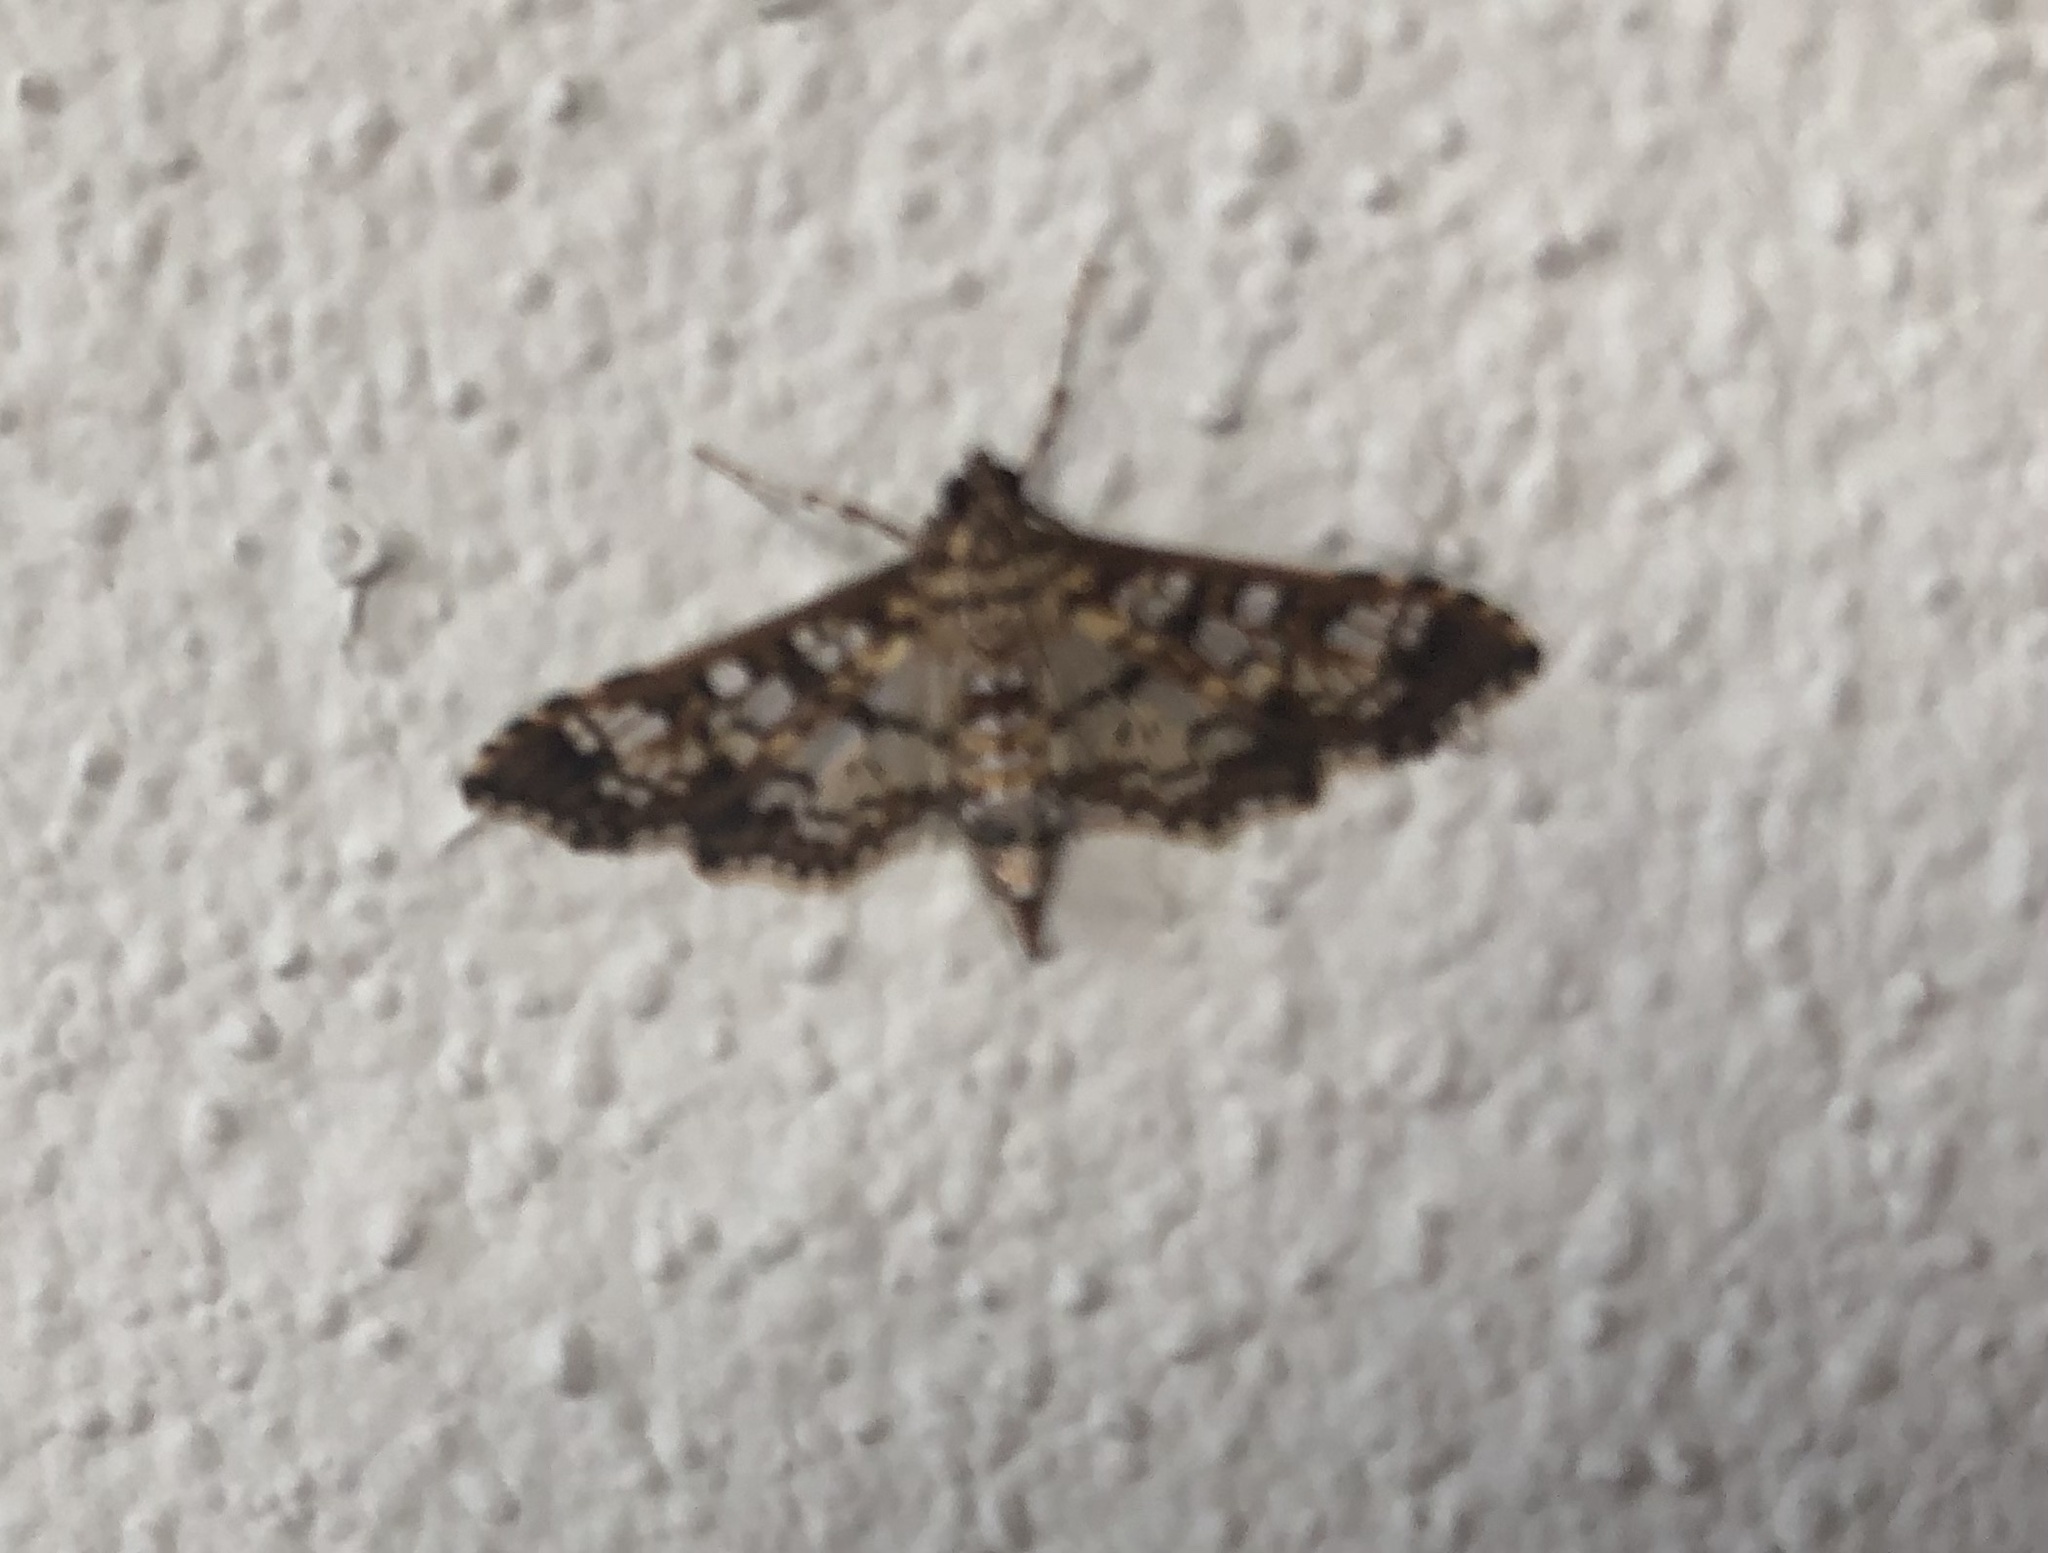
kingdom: Animalia
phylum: Arthropoda
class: Insecta
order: Lepidoptera
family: Crambidae
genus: Samea
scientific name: Samea ecclesialis
